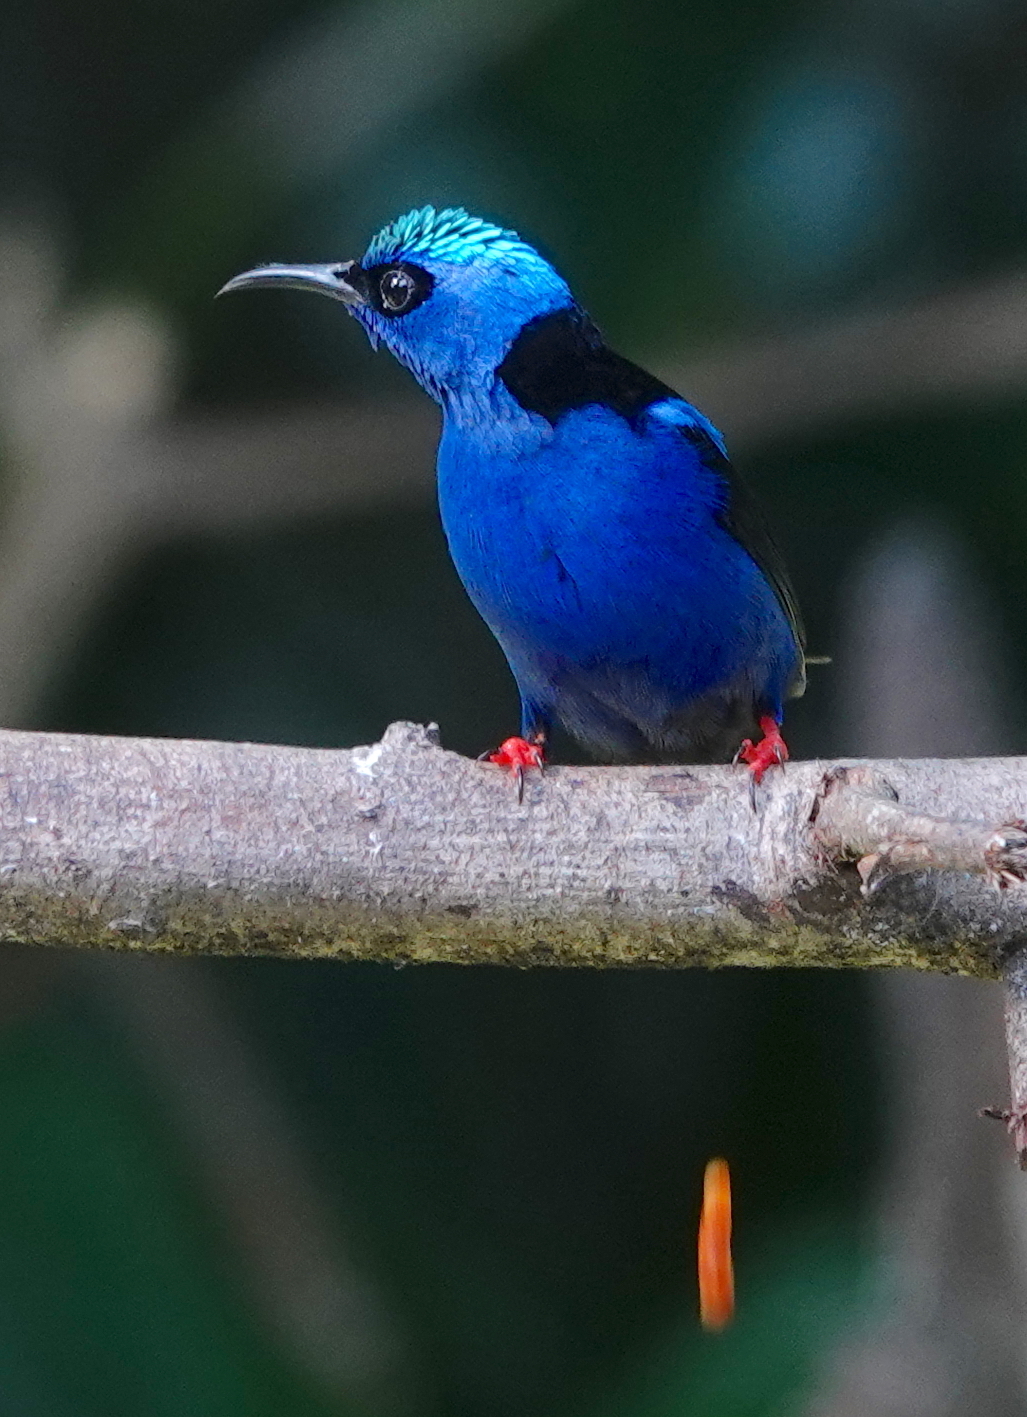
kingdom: Animalia
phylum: Chordata
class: Aves
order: Passeriformes
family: Thraupidae
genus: Cyanerpes
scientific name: Cyanerpes cyaneus
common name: Red-legged honeycreeper
